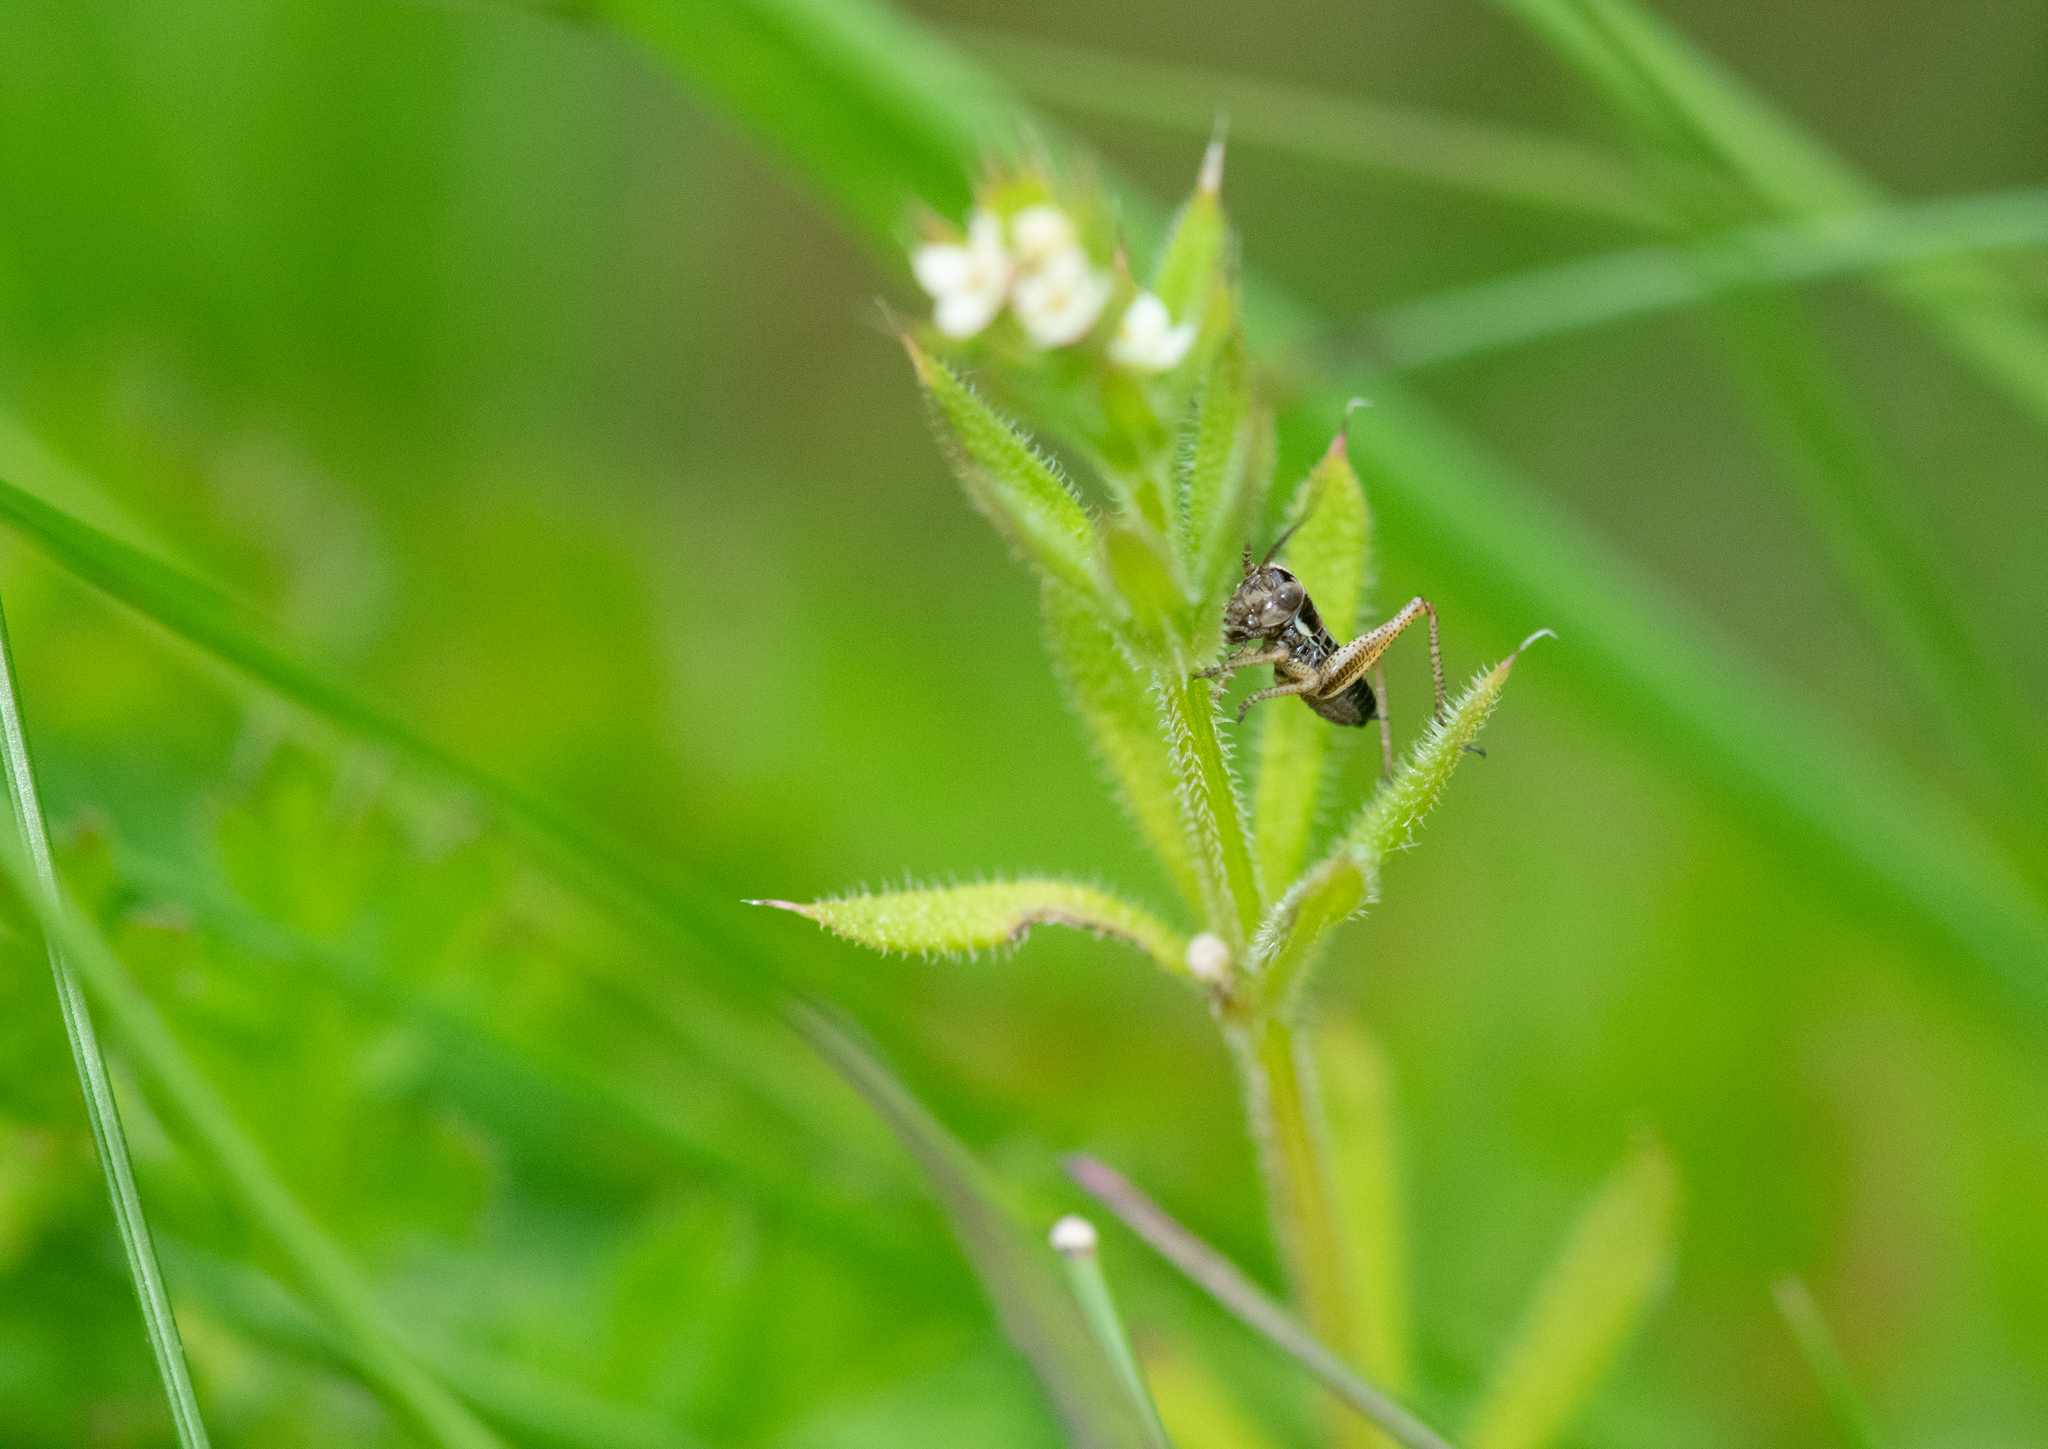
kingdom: Animalia
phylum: Arthropoda
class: Insecta
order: Orthoptera
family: Tettigoniidae
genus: Roeseliana
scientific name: Roeseliana roeselii
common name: Roesel's bush cricket
